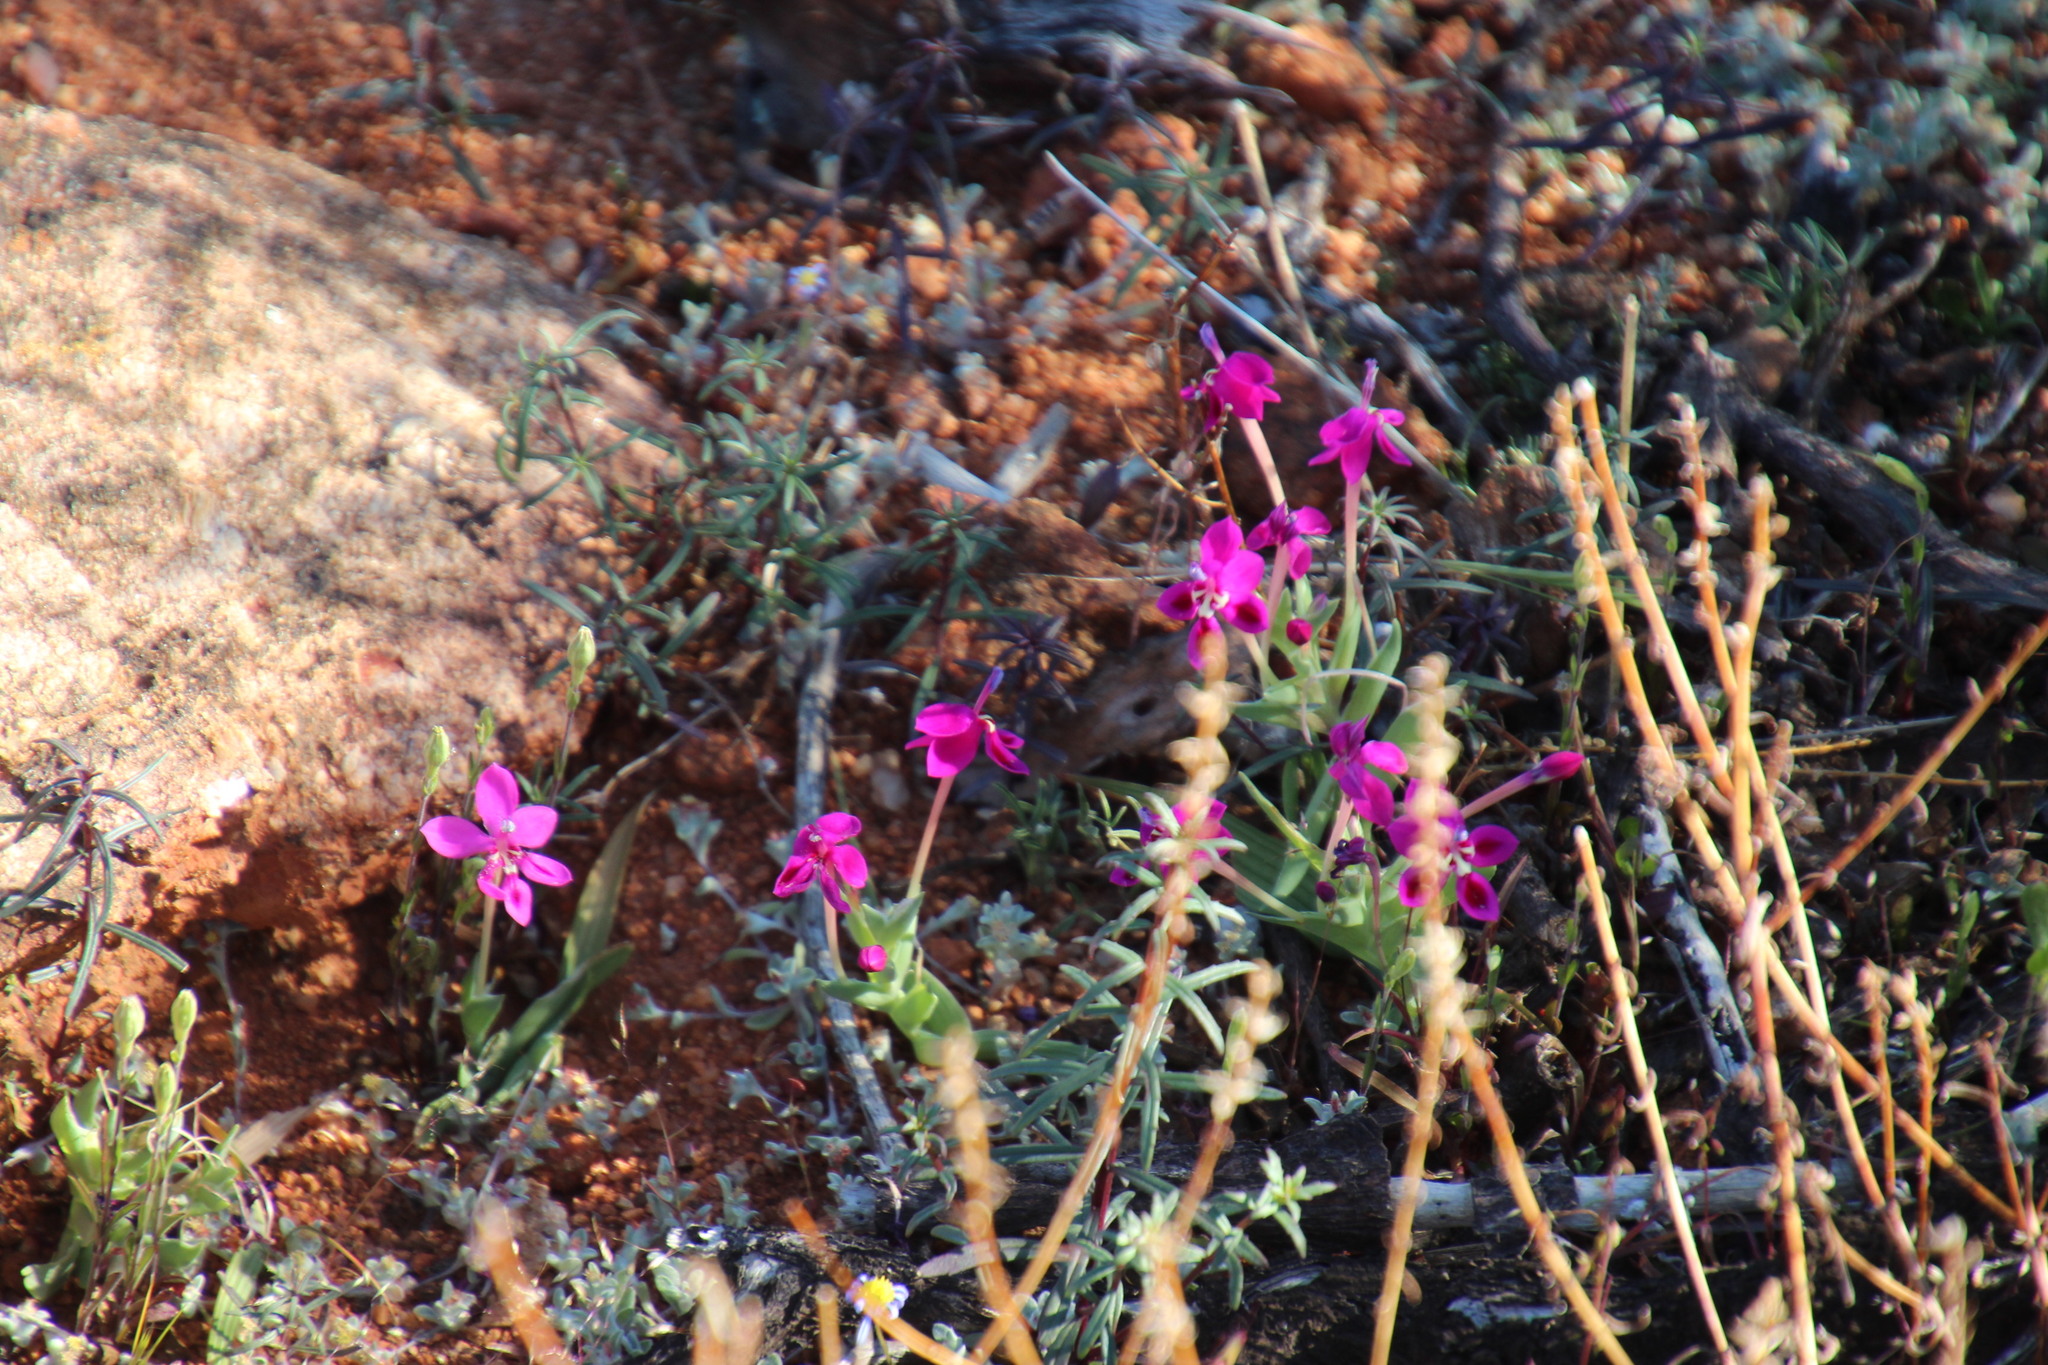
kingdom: Plantae
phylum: Tracheophyta
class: Liliopsida
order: Asparagales
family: Iridaceae
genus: Lapeirousia
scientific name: Lapeirousia silenoides
